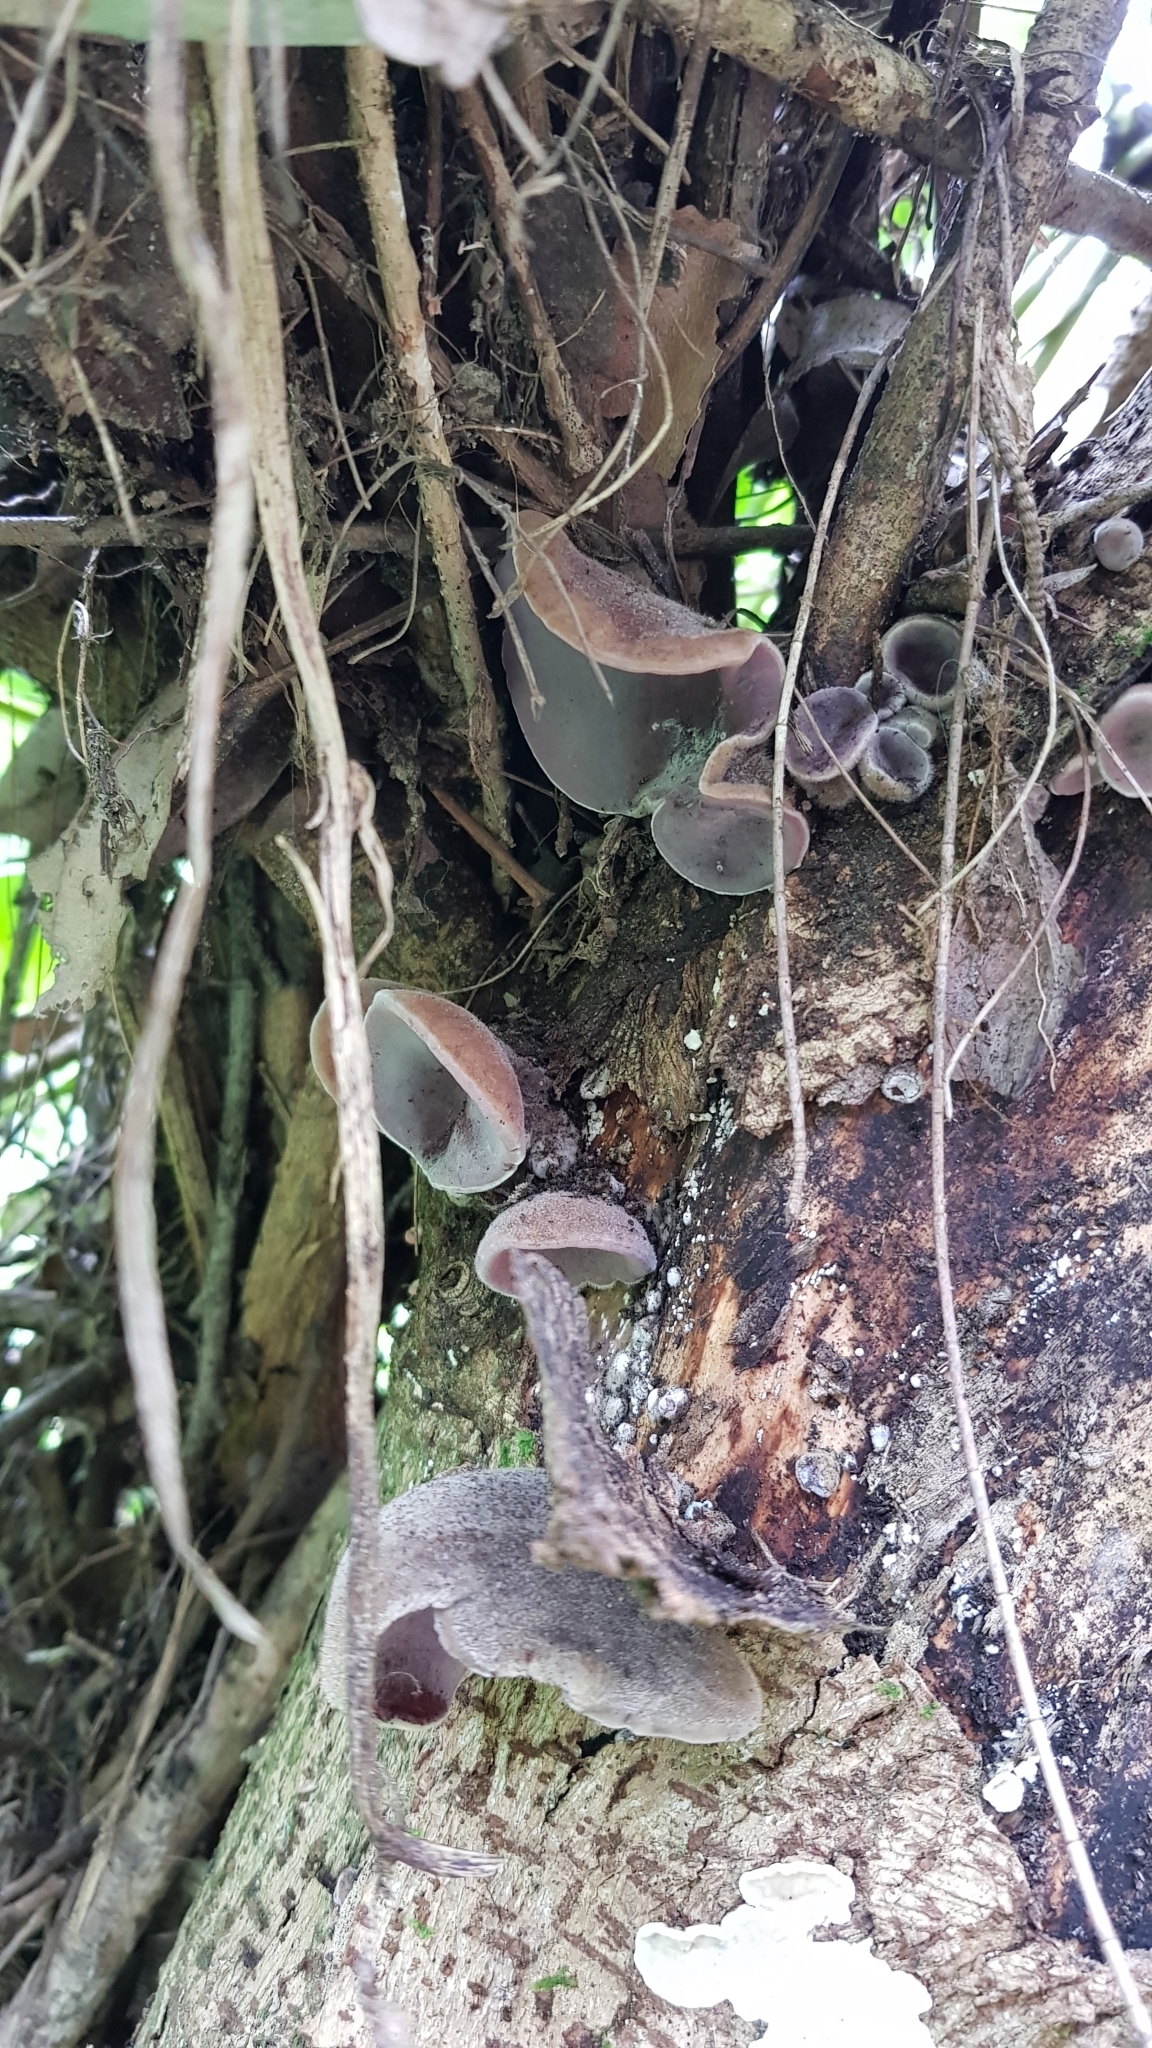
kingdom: Fungi
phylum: Basidiomycota
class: Agaricomycetes
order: Auriculariales
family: Auriculariaceae
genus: Auricularia
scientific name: Auricularia cornea
